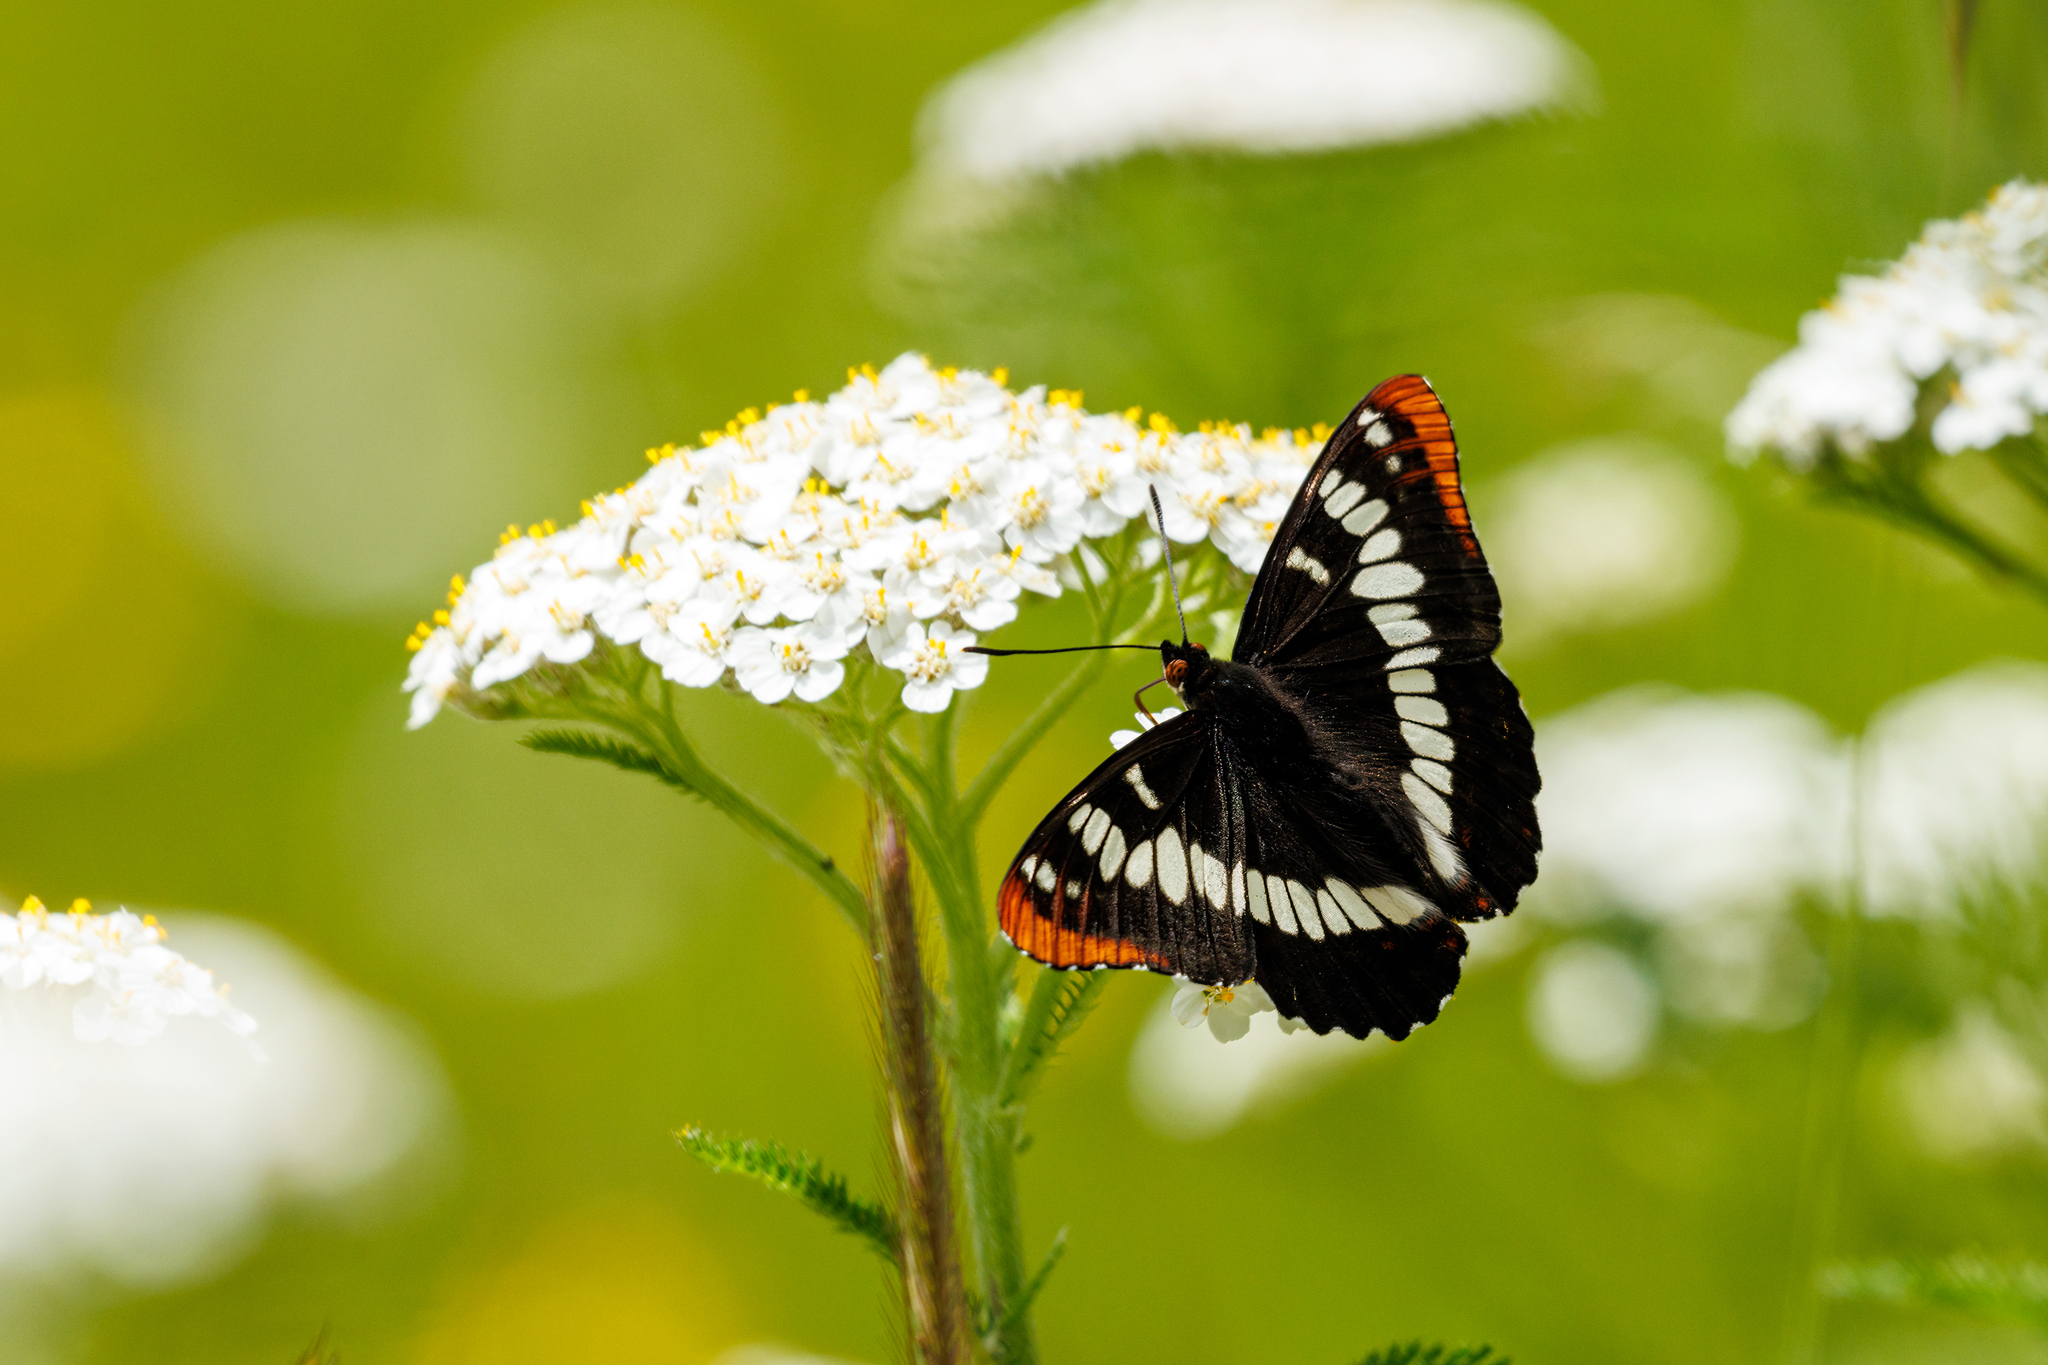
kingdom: Animalia
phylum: Arthropoda
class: Insecta
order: Lepidoptera
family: Nymphalidae
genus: Limenitis
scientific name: Limenitis lorquini
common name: Lorquin's admiral
